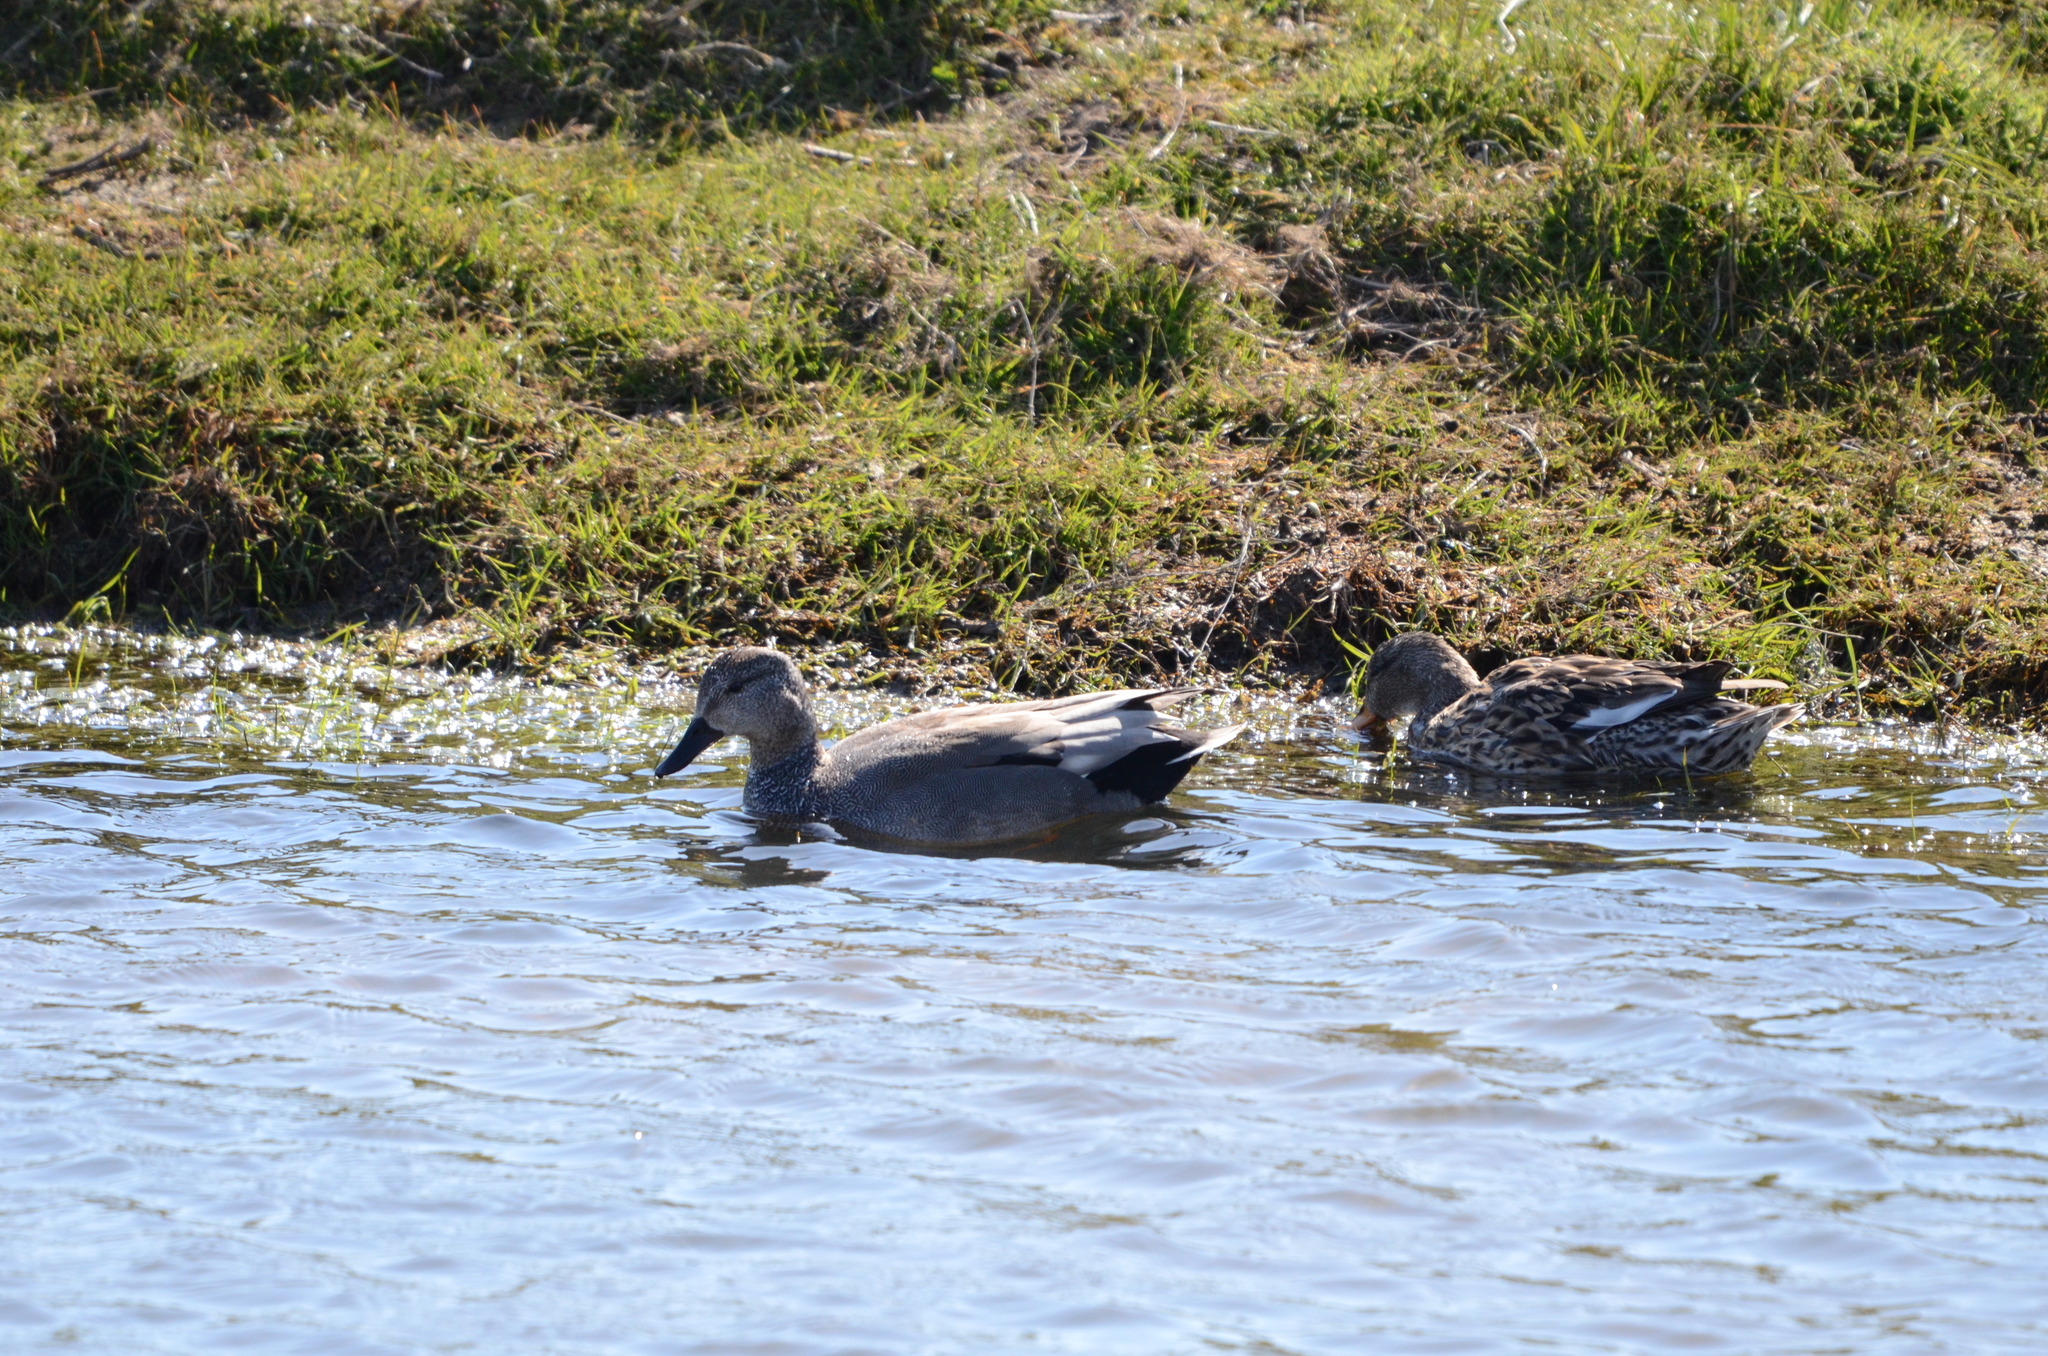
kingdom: Animalia
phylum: Chordata
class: Aves
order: Anseriformes
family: Anatidae
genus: Mareca
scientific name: Mareca strepera
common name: Gadwall
